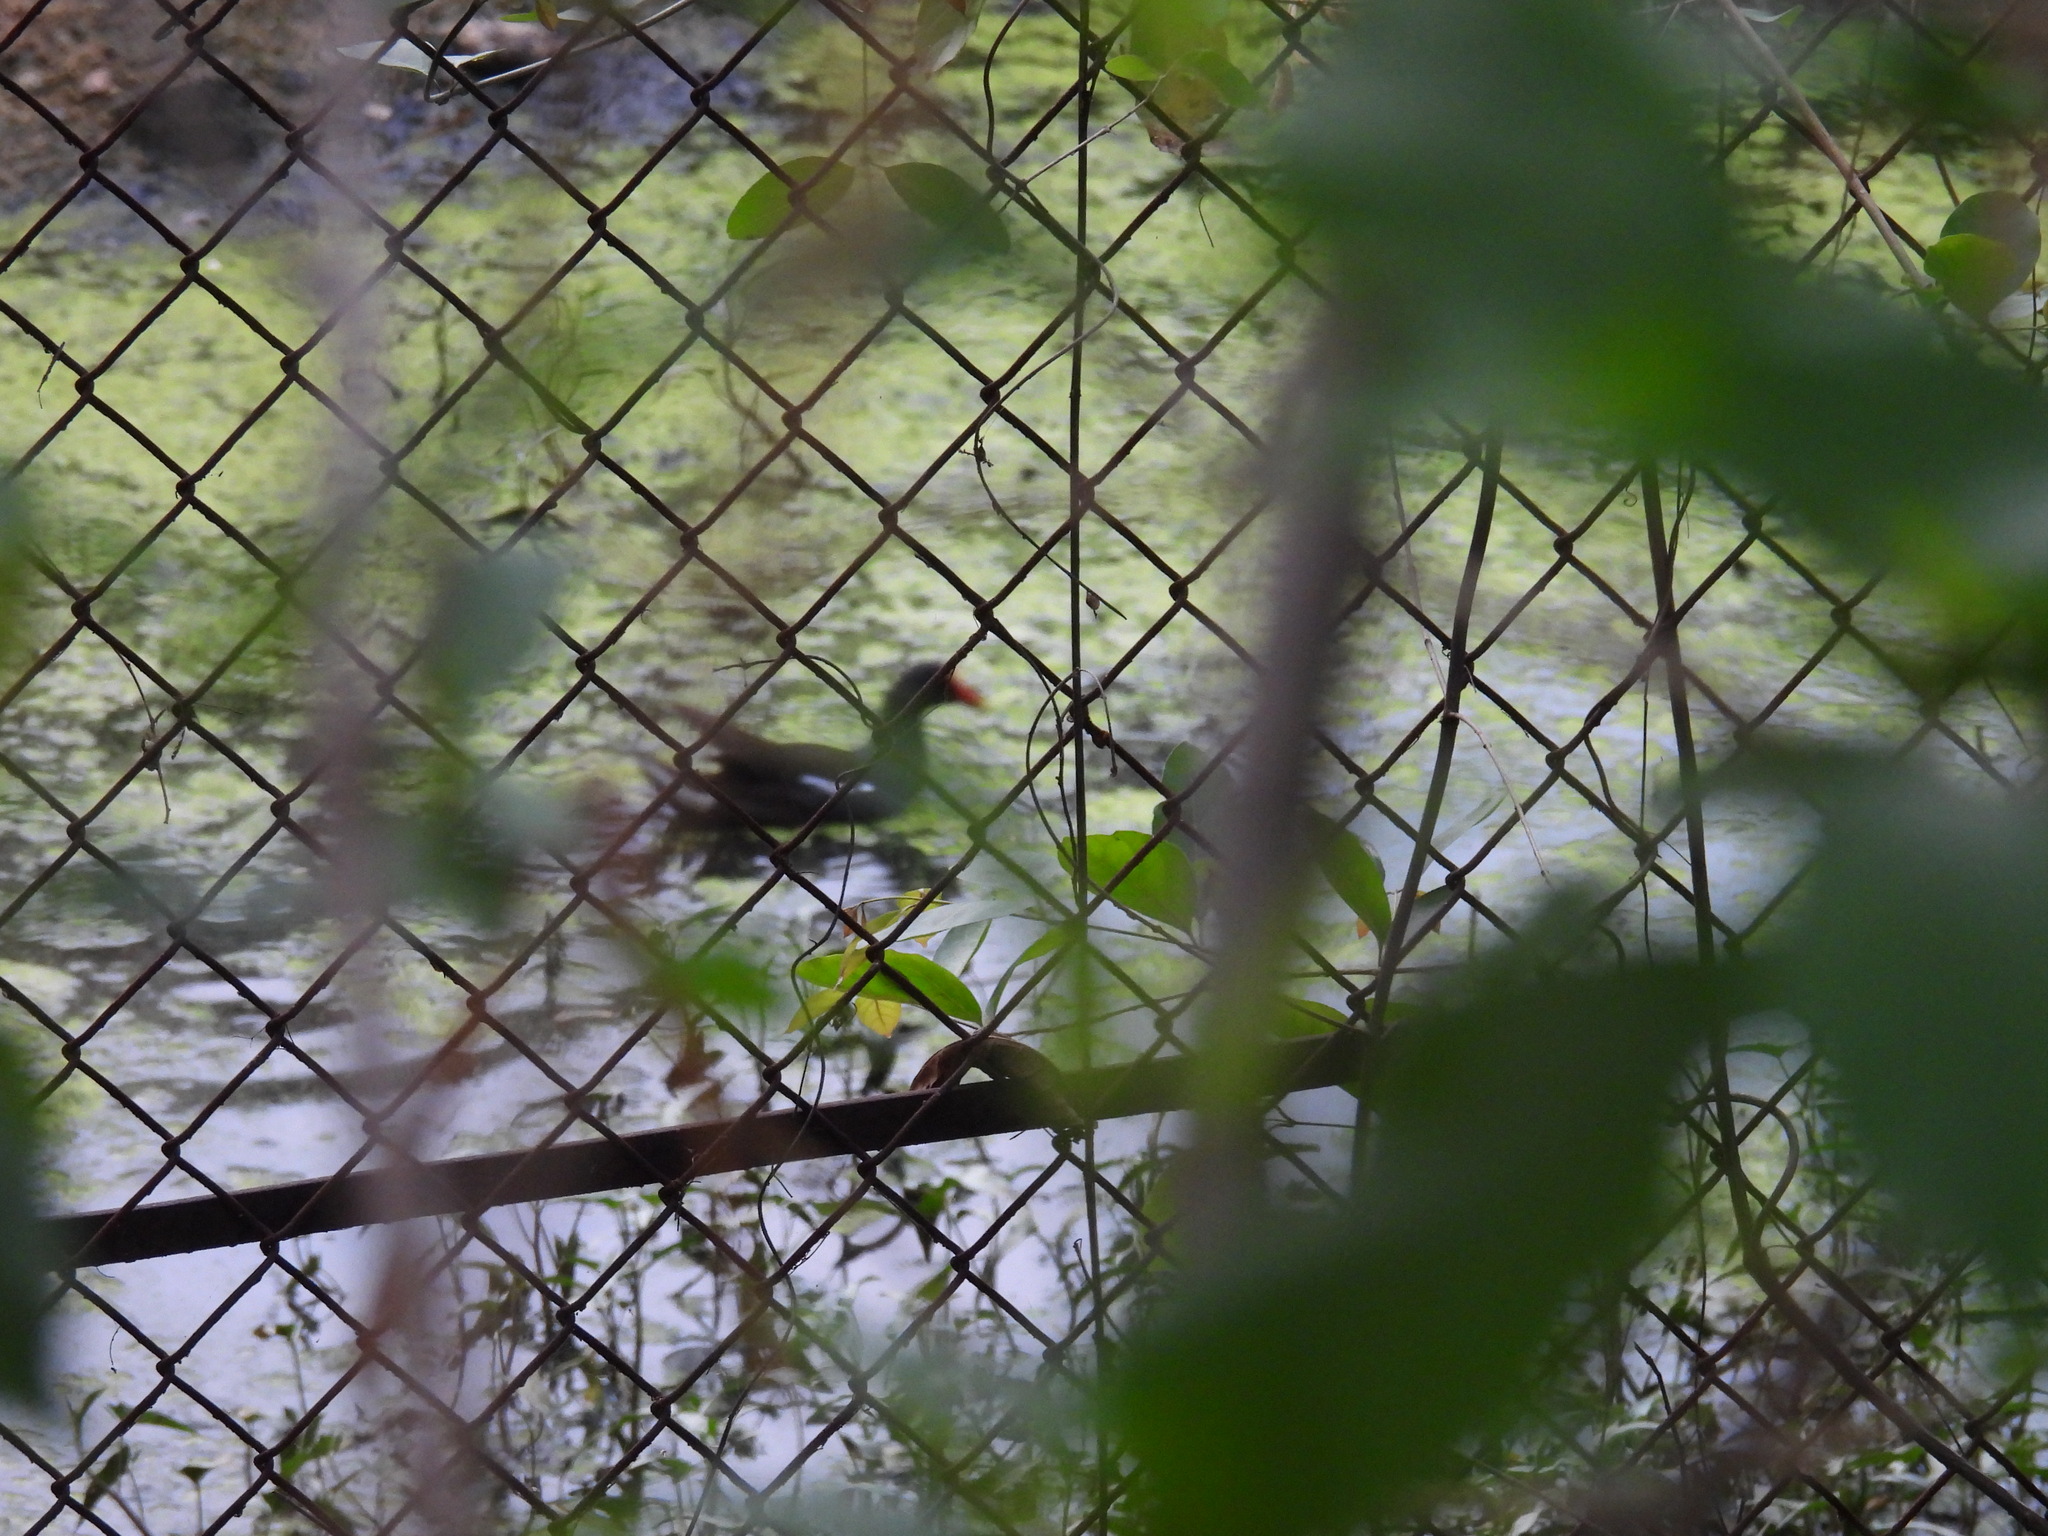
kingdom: Animalia
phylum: Chordata
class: Aves
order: Gruiformes
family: Rallidae
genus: Gallinula
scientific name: Gallinula chloropus
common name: Common moorhen
